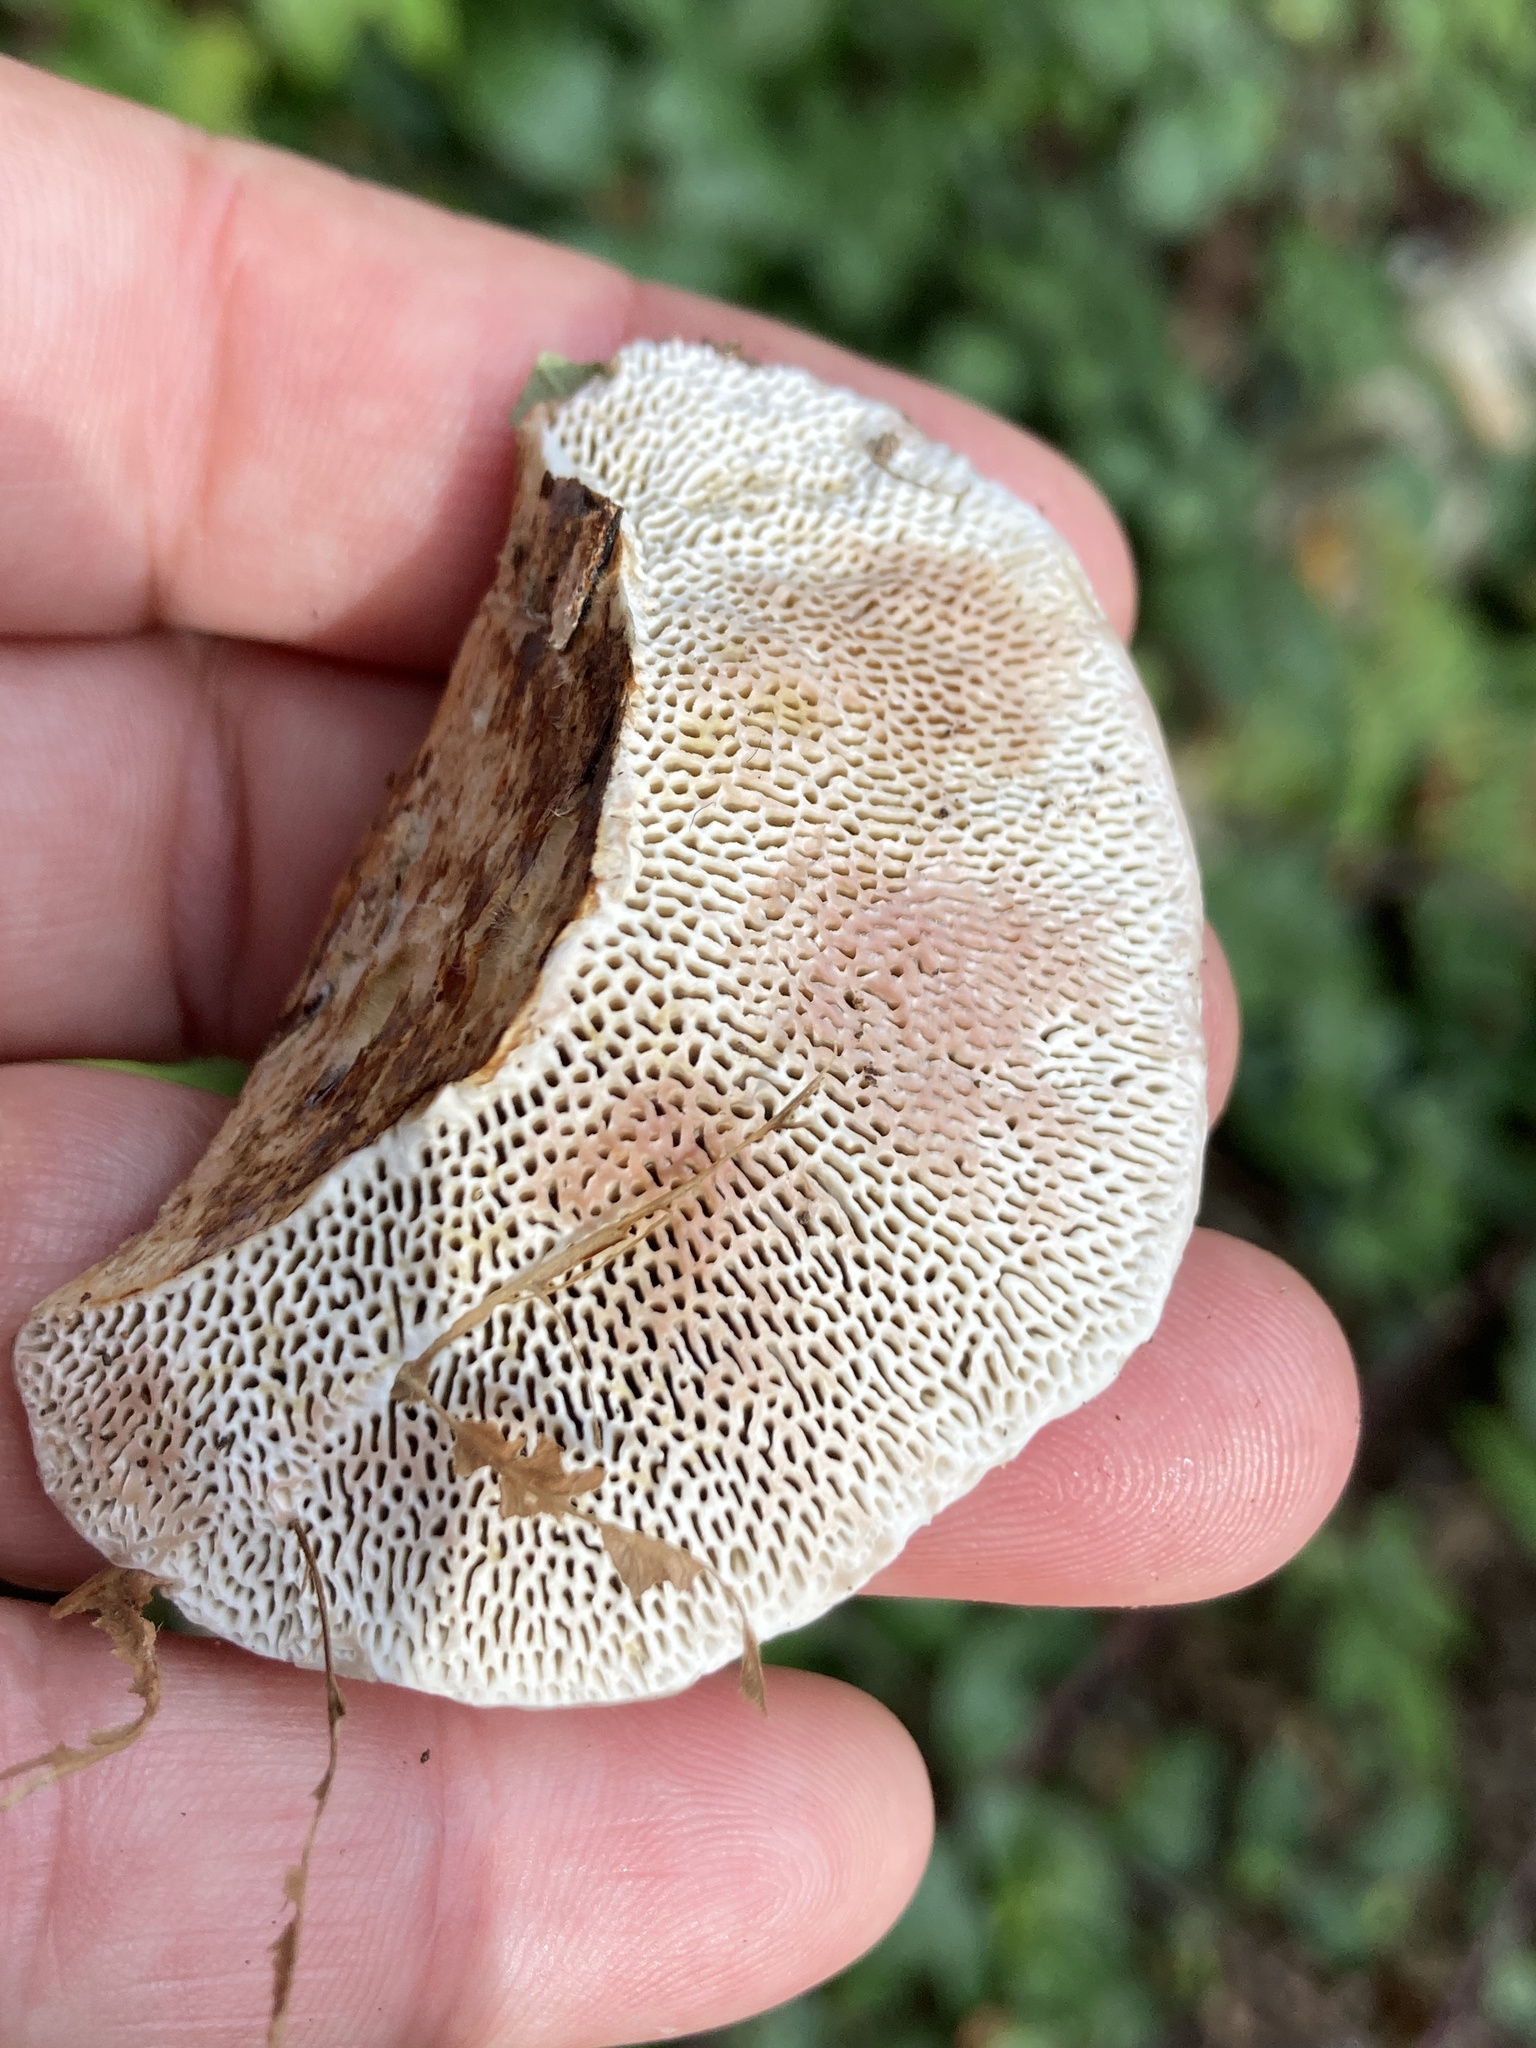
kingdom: Fungi
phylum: Basidiomycota
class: Agaricomycetes
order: Polyporales
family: Polyporaceae
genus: Daedaleopsis
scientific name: Daedaleopsis confragosa
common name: Blushing bracket
